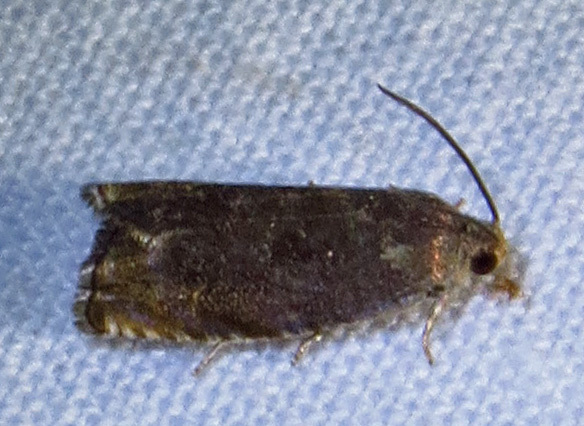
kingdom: Animalia
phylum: Arthropoda
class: Insecta
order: Lepidoptera
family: Tortricidae
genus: Cydia
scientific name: Cydia caryana
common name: Hickory shuckworm moth
